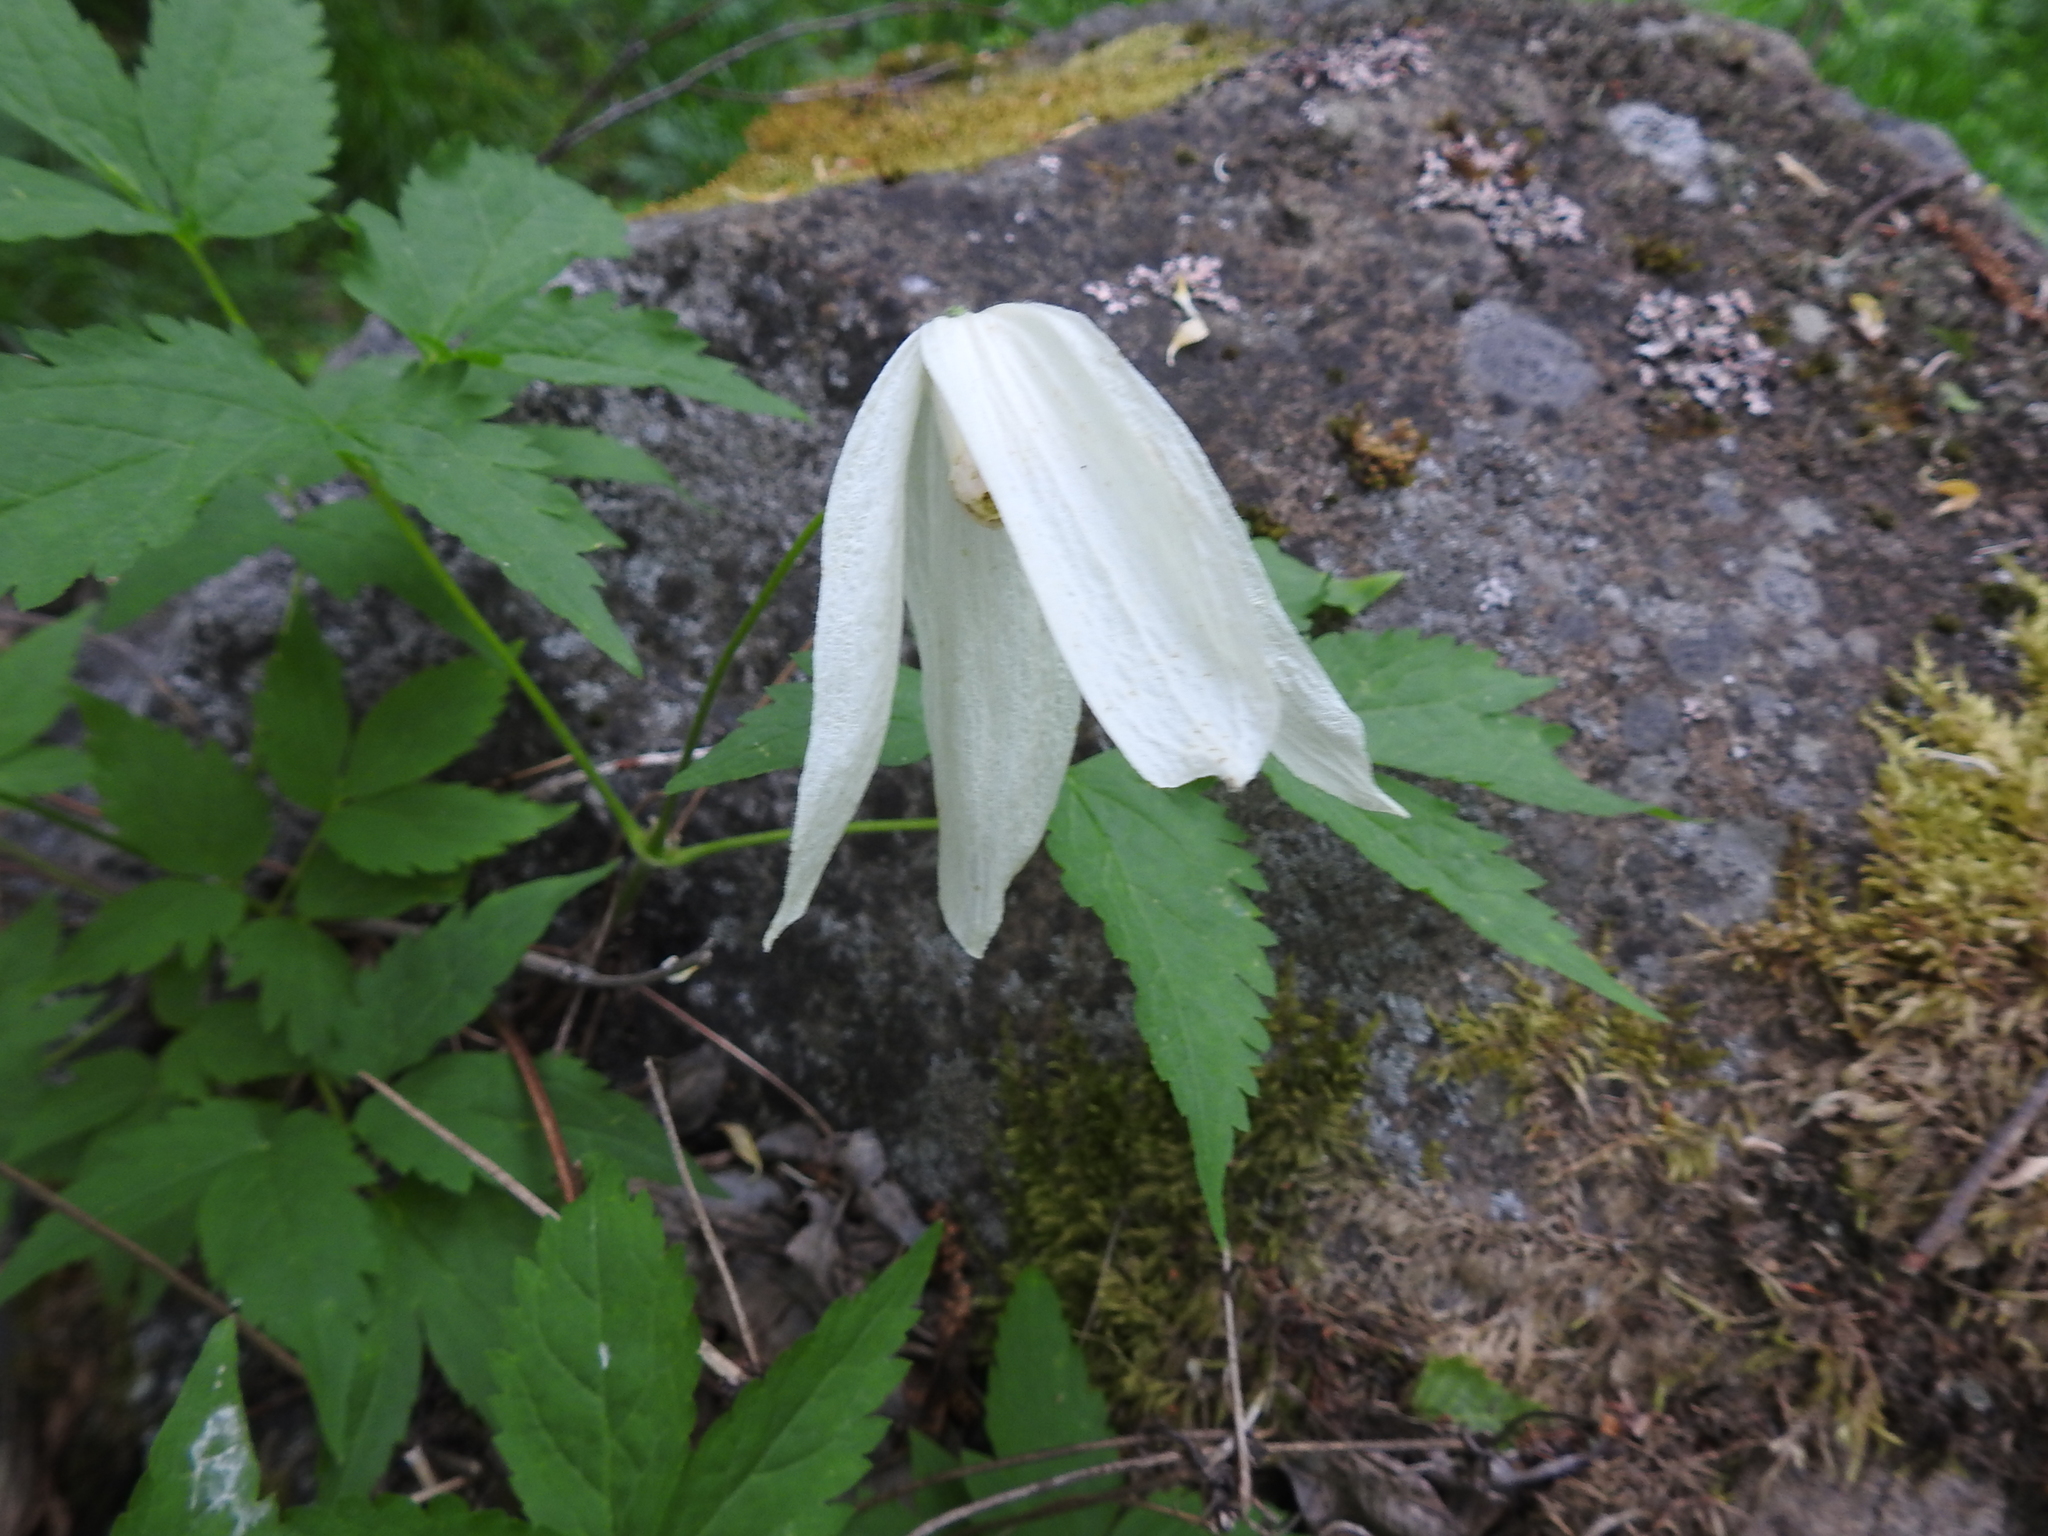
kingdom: Plantae
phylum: Tracheophyta
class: Magnoliopsida
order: Ranunculales
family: Ranunculaceae
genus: Clematis
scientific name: Clematis sibirica
